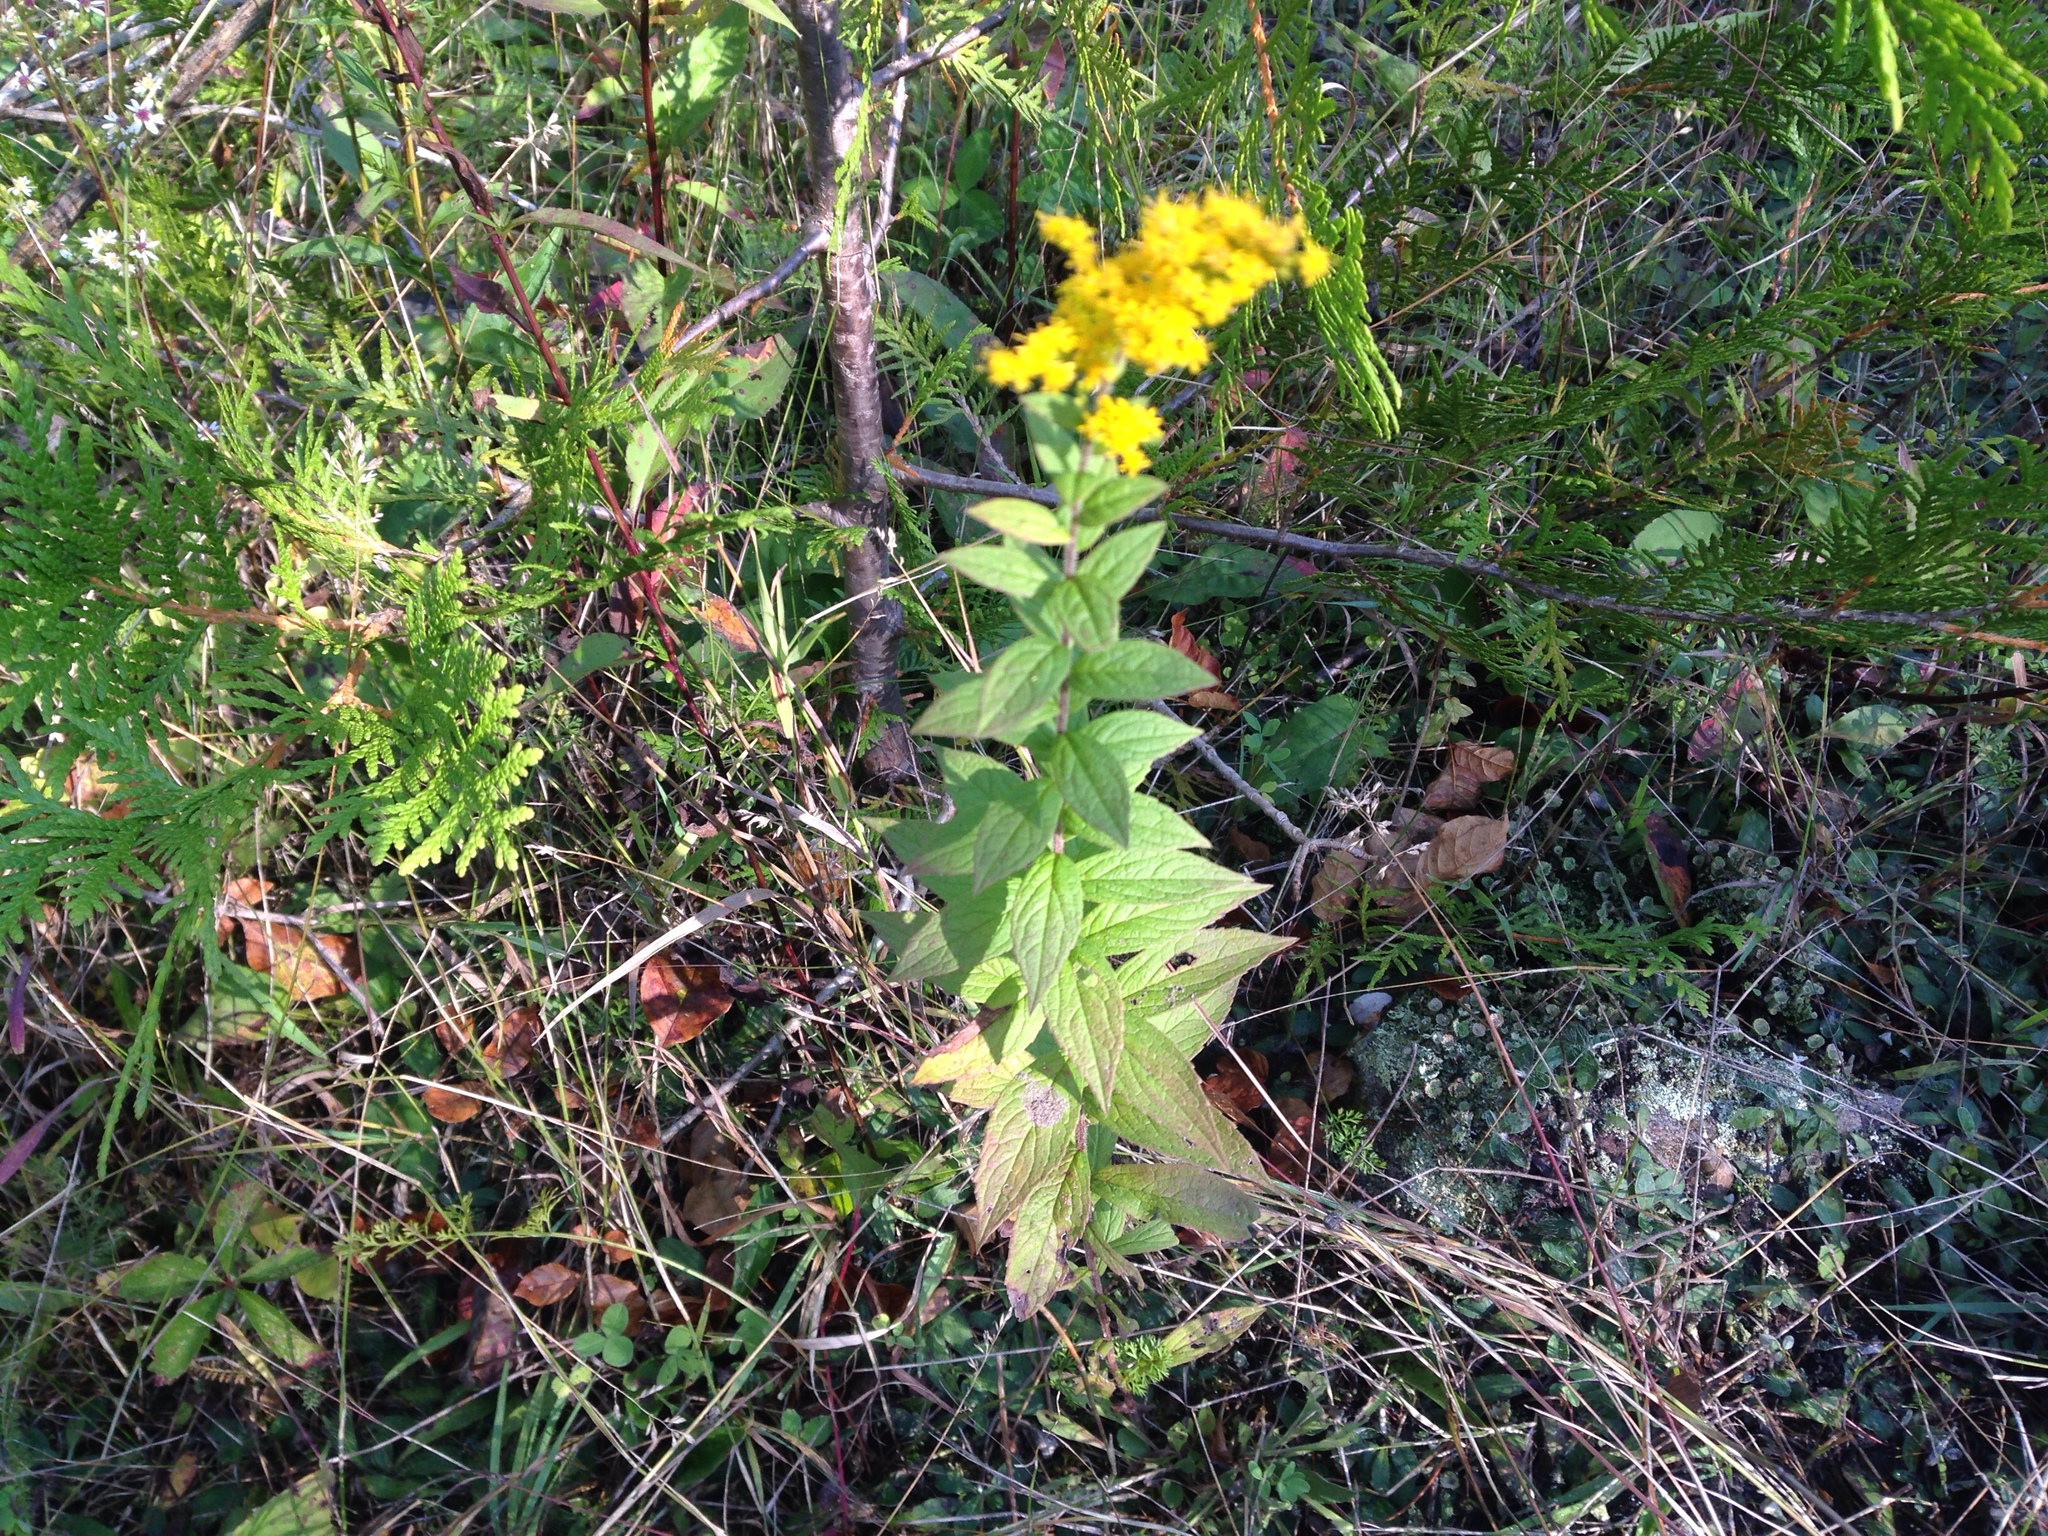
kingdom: Plantae
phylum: Tracheophyta
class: Magnoliopsida
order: Asterales
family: Asteraceae
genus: Solidago
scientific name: Solidago rugosa
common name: Rough-stemmed goldenrod
